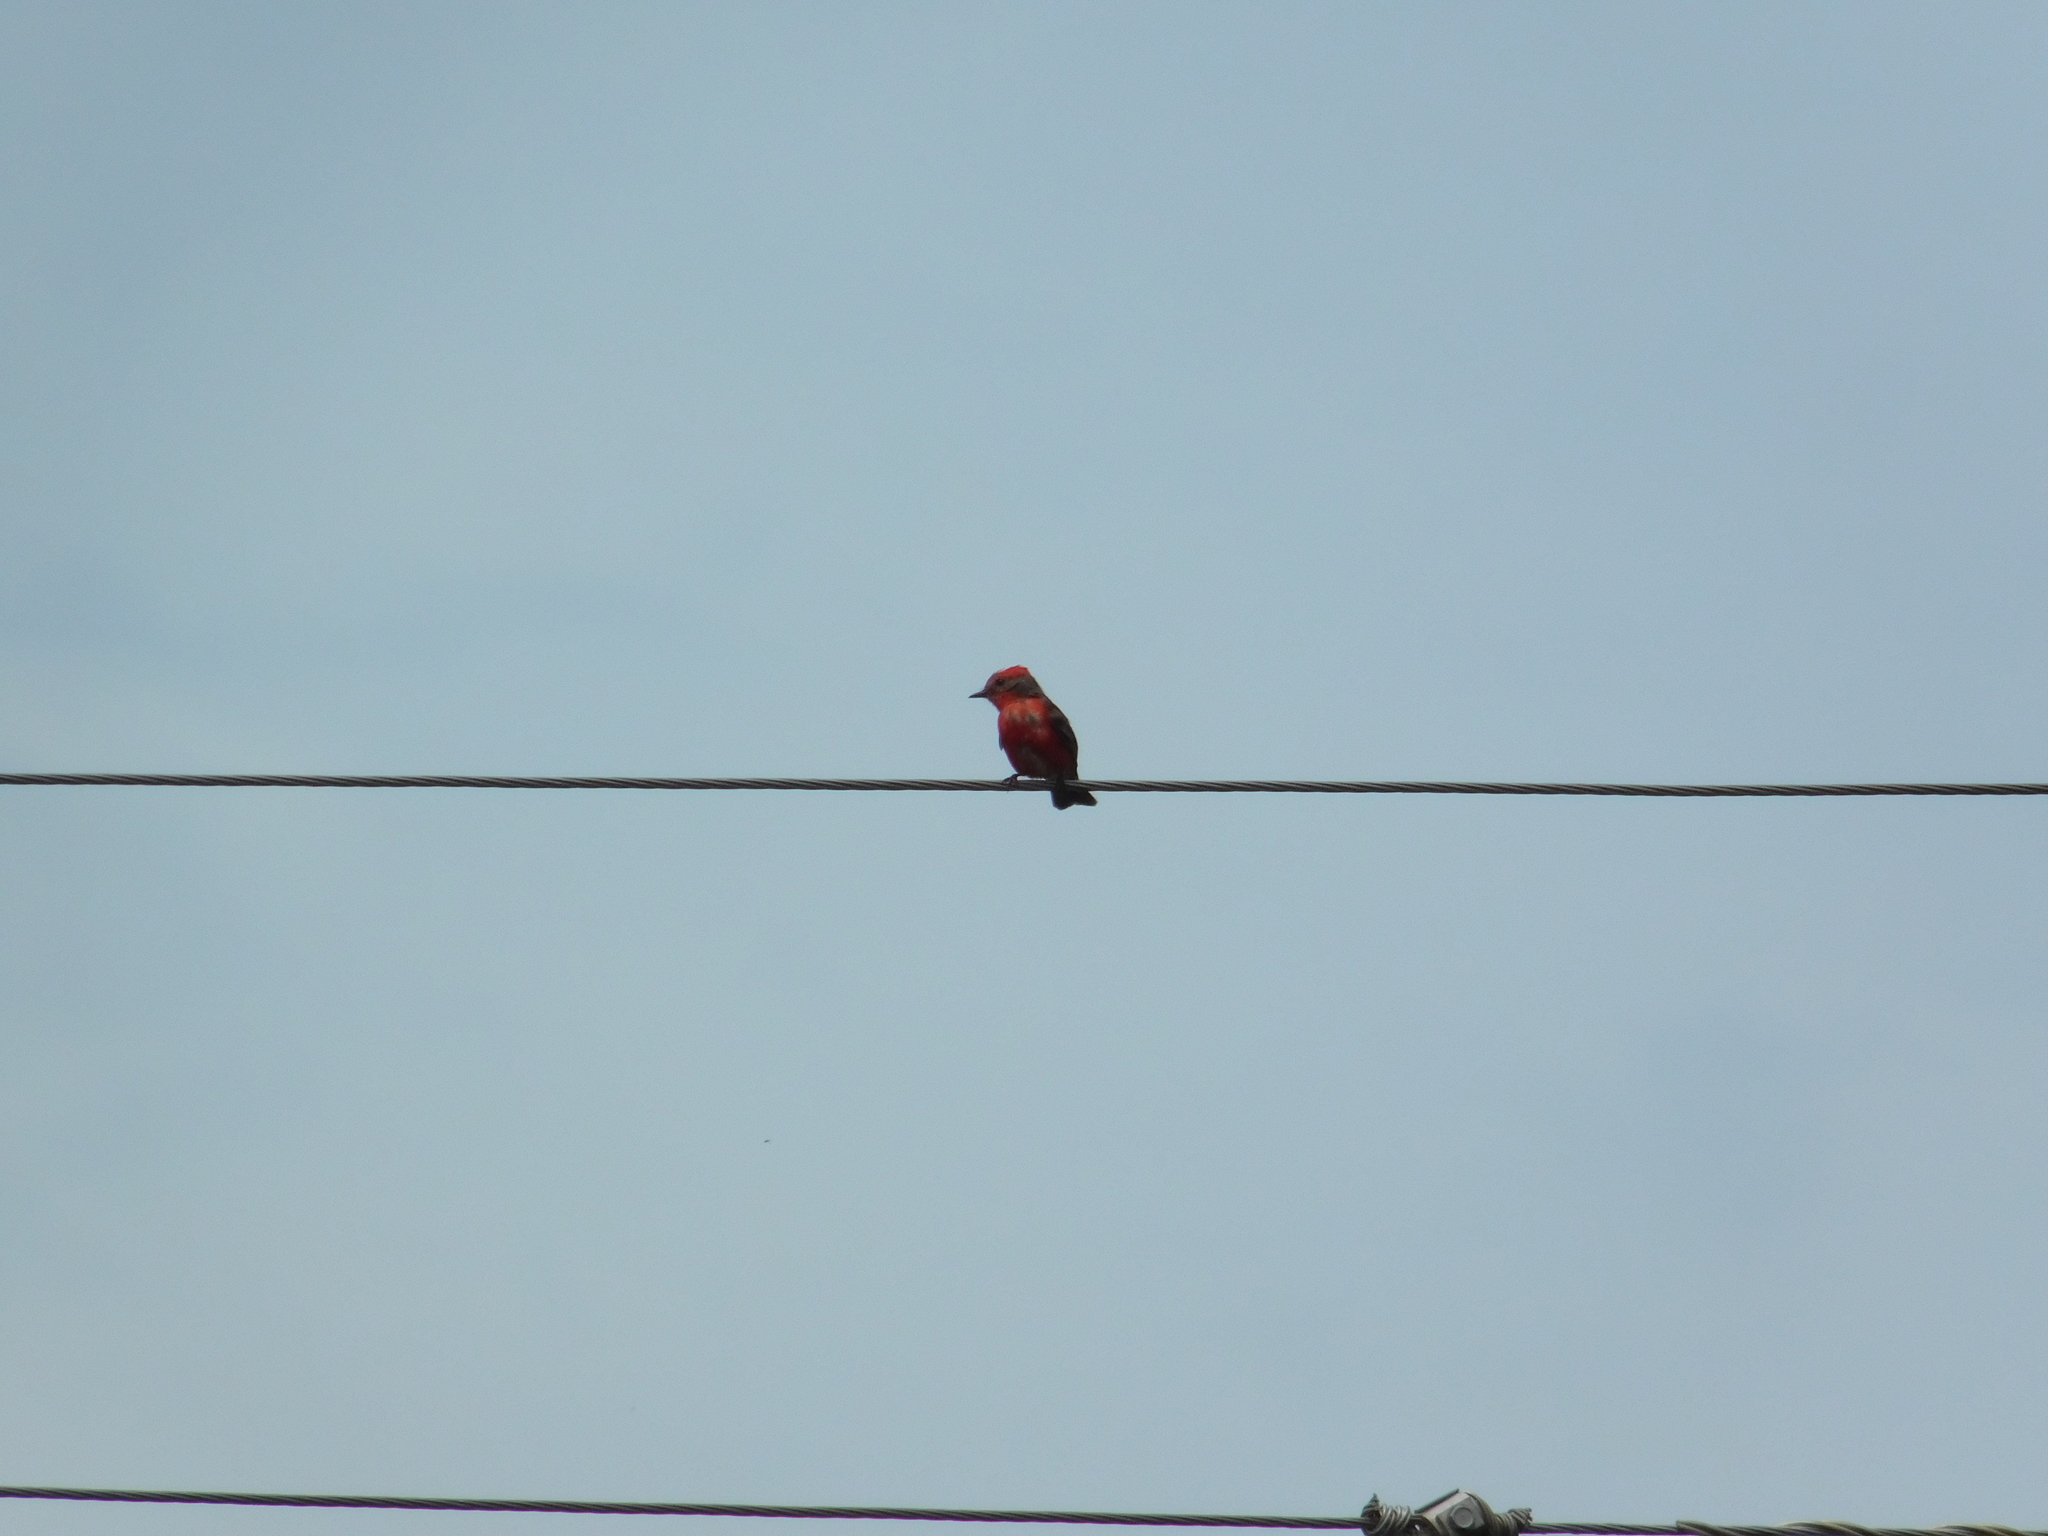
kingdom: Animalia
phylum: Chordata
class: Aves
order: Passeriformes
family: Tyrannidae
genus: Pyrocephalus
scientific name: Pyrocephalus rubinus
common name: Vermilion flycatcher
